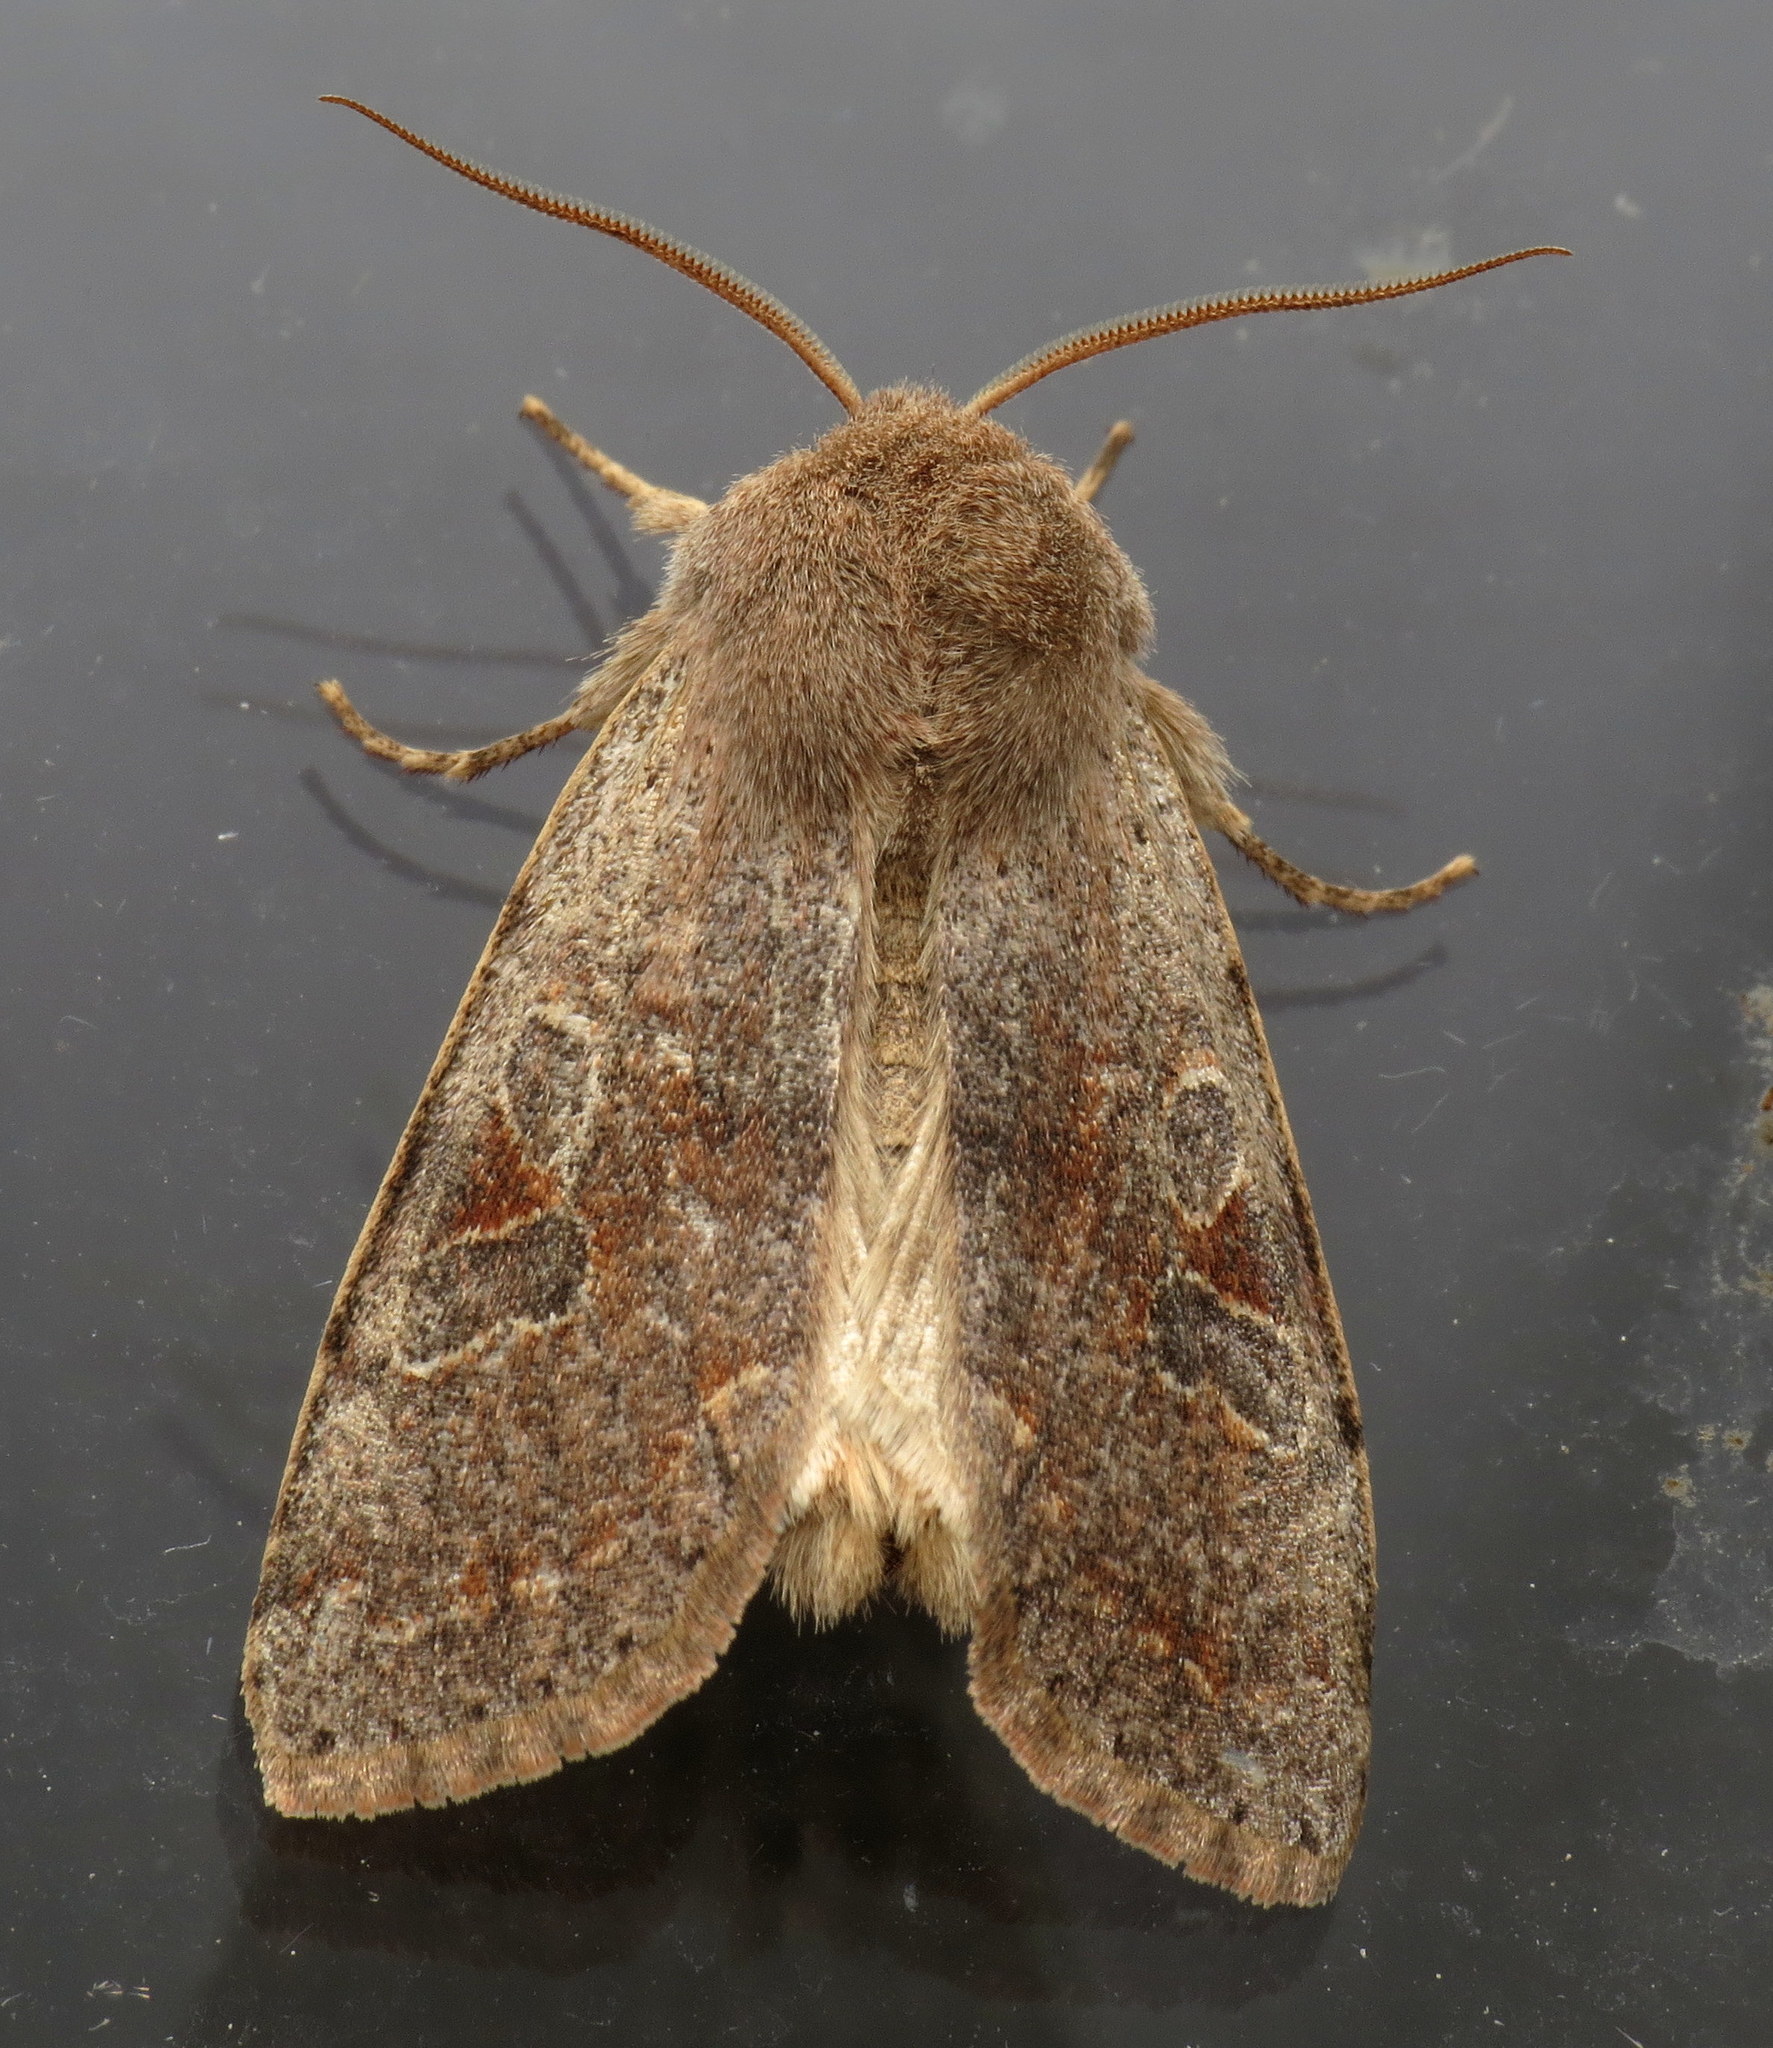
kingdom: Animalia
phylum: Arthropoda
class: Insecta
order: Lepidoptera
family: Noctuidae
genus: Orthosia
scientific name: Orthosia hibisci
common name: Green fruitworm
